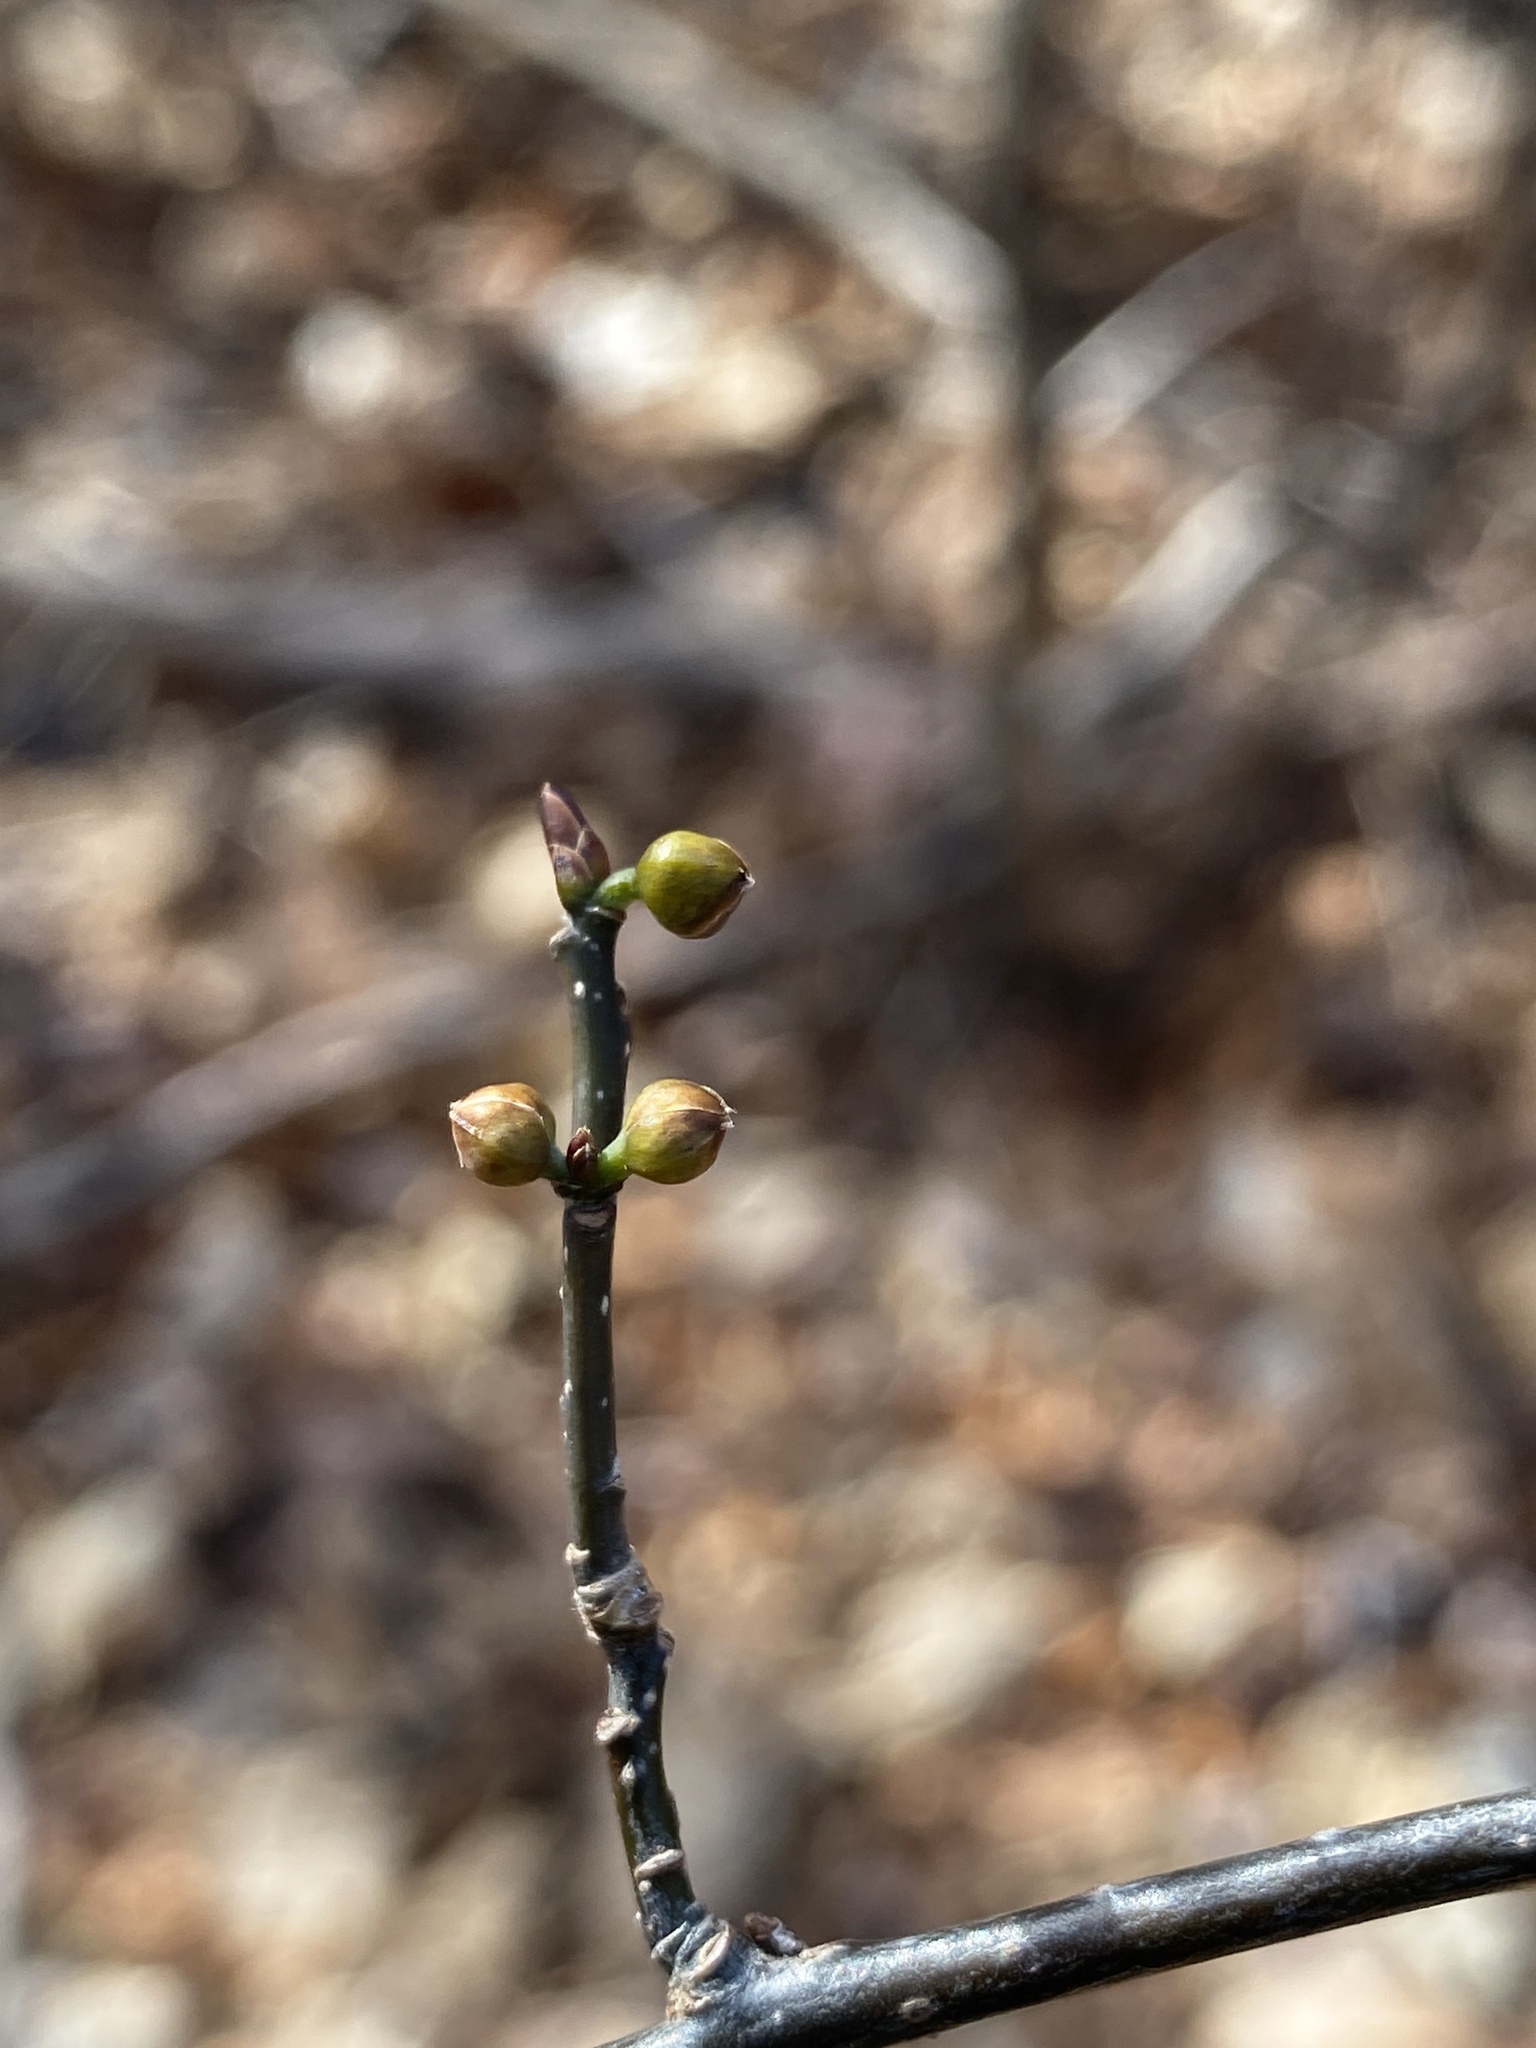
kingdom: Plantae
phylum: Tracheophyta
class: Magnoliopsida
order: Laurales
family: Lauraceae
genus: Lindera
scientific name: Lindera benzoin
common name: Spicebush
